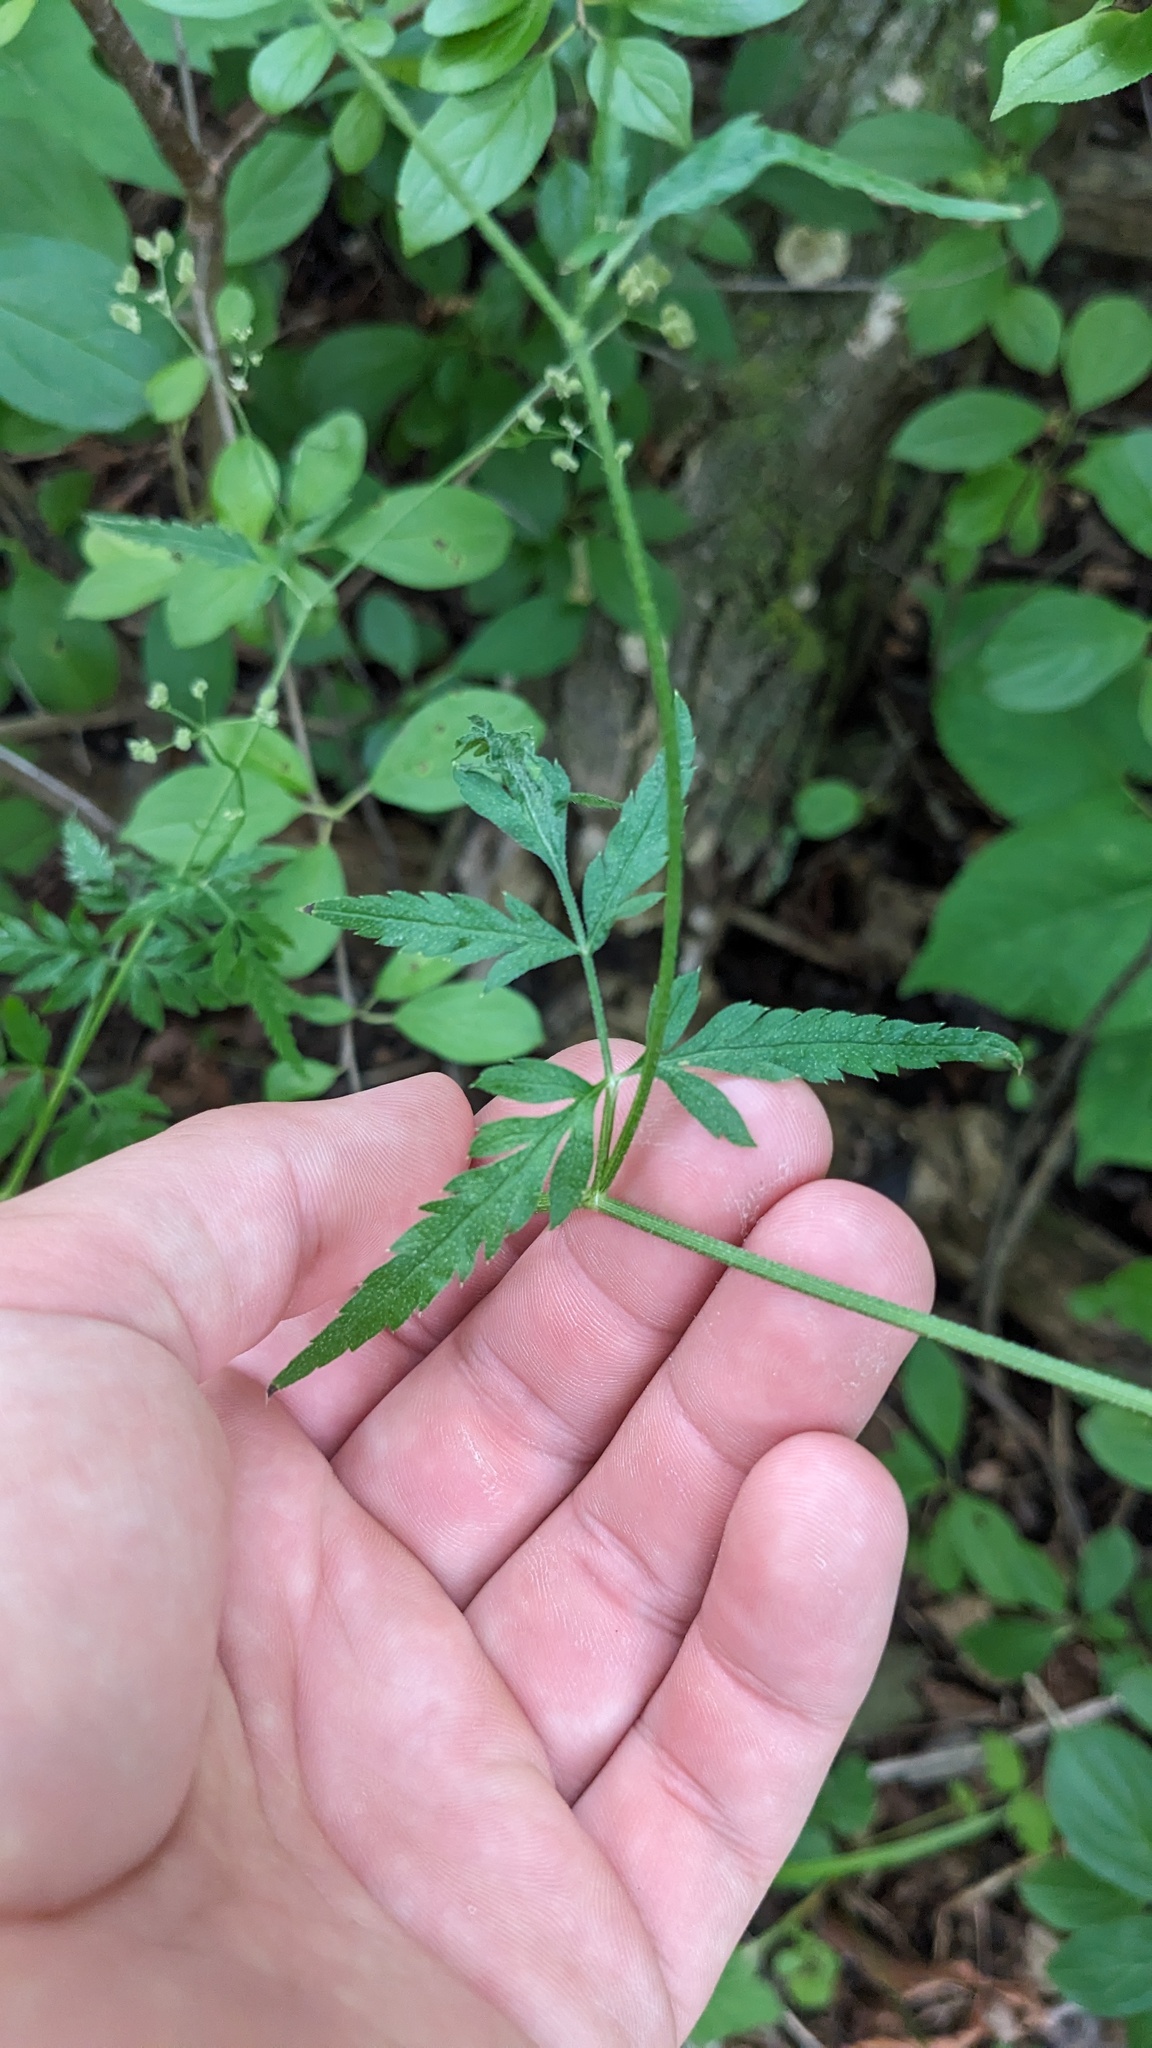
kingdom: Plantae
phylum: Tracheophyta
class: Magnoliopsida
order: Apiales
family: Apiaceae
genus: Torilis
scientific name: Torilis japonica
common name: Upright hedge-parsley
